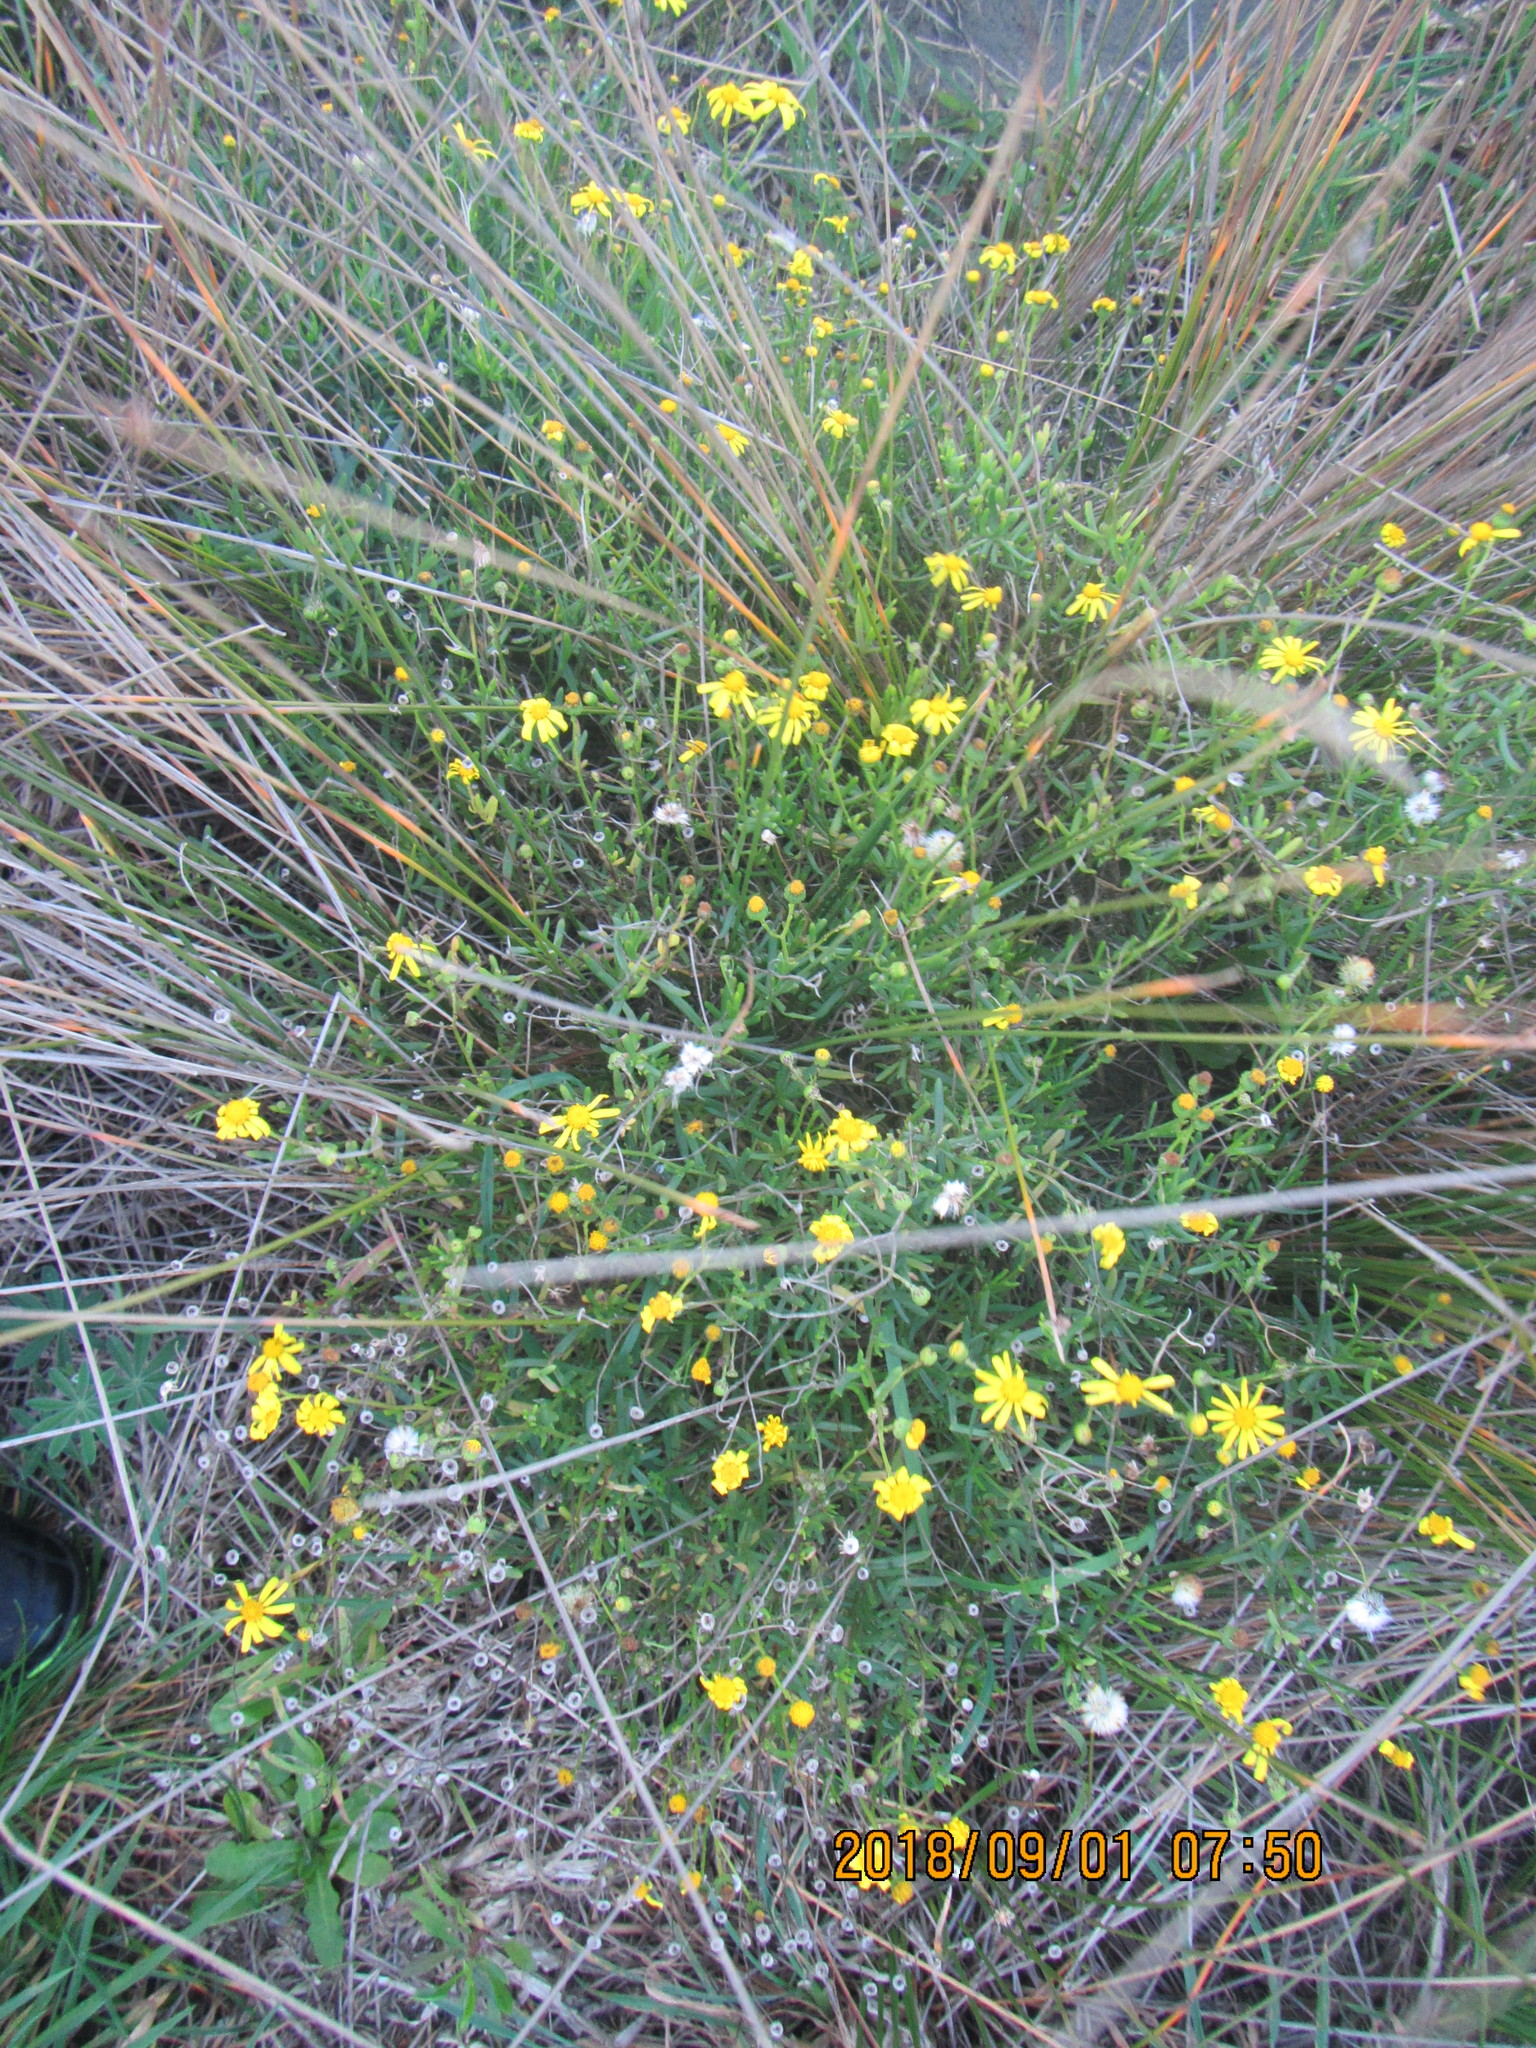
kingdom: Plantae
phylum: Tracheophyta
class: Magnoliopsida
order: Asterales
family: Asteraceae
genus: Senecio
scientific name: Senecio skirrhodon
